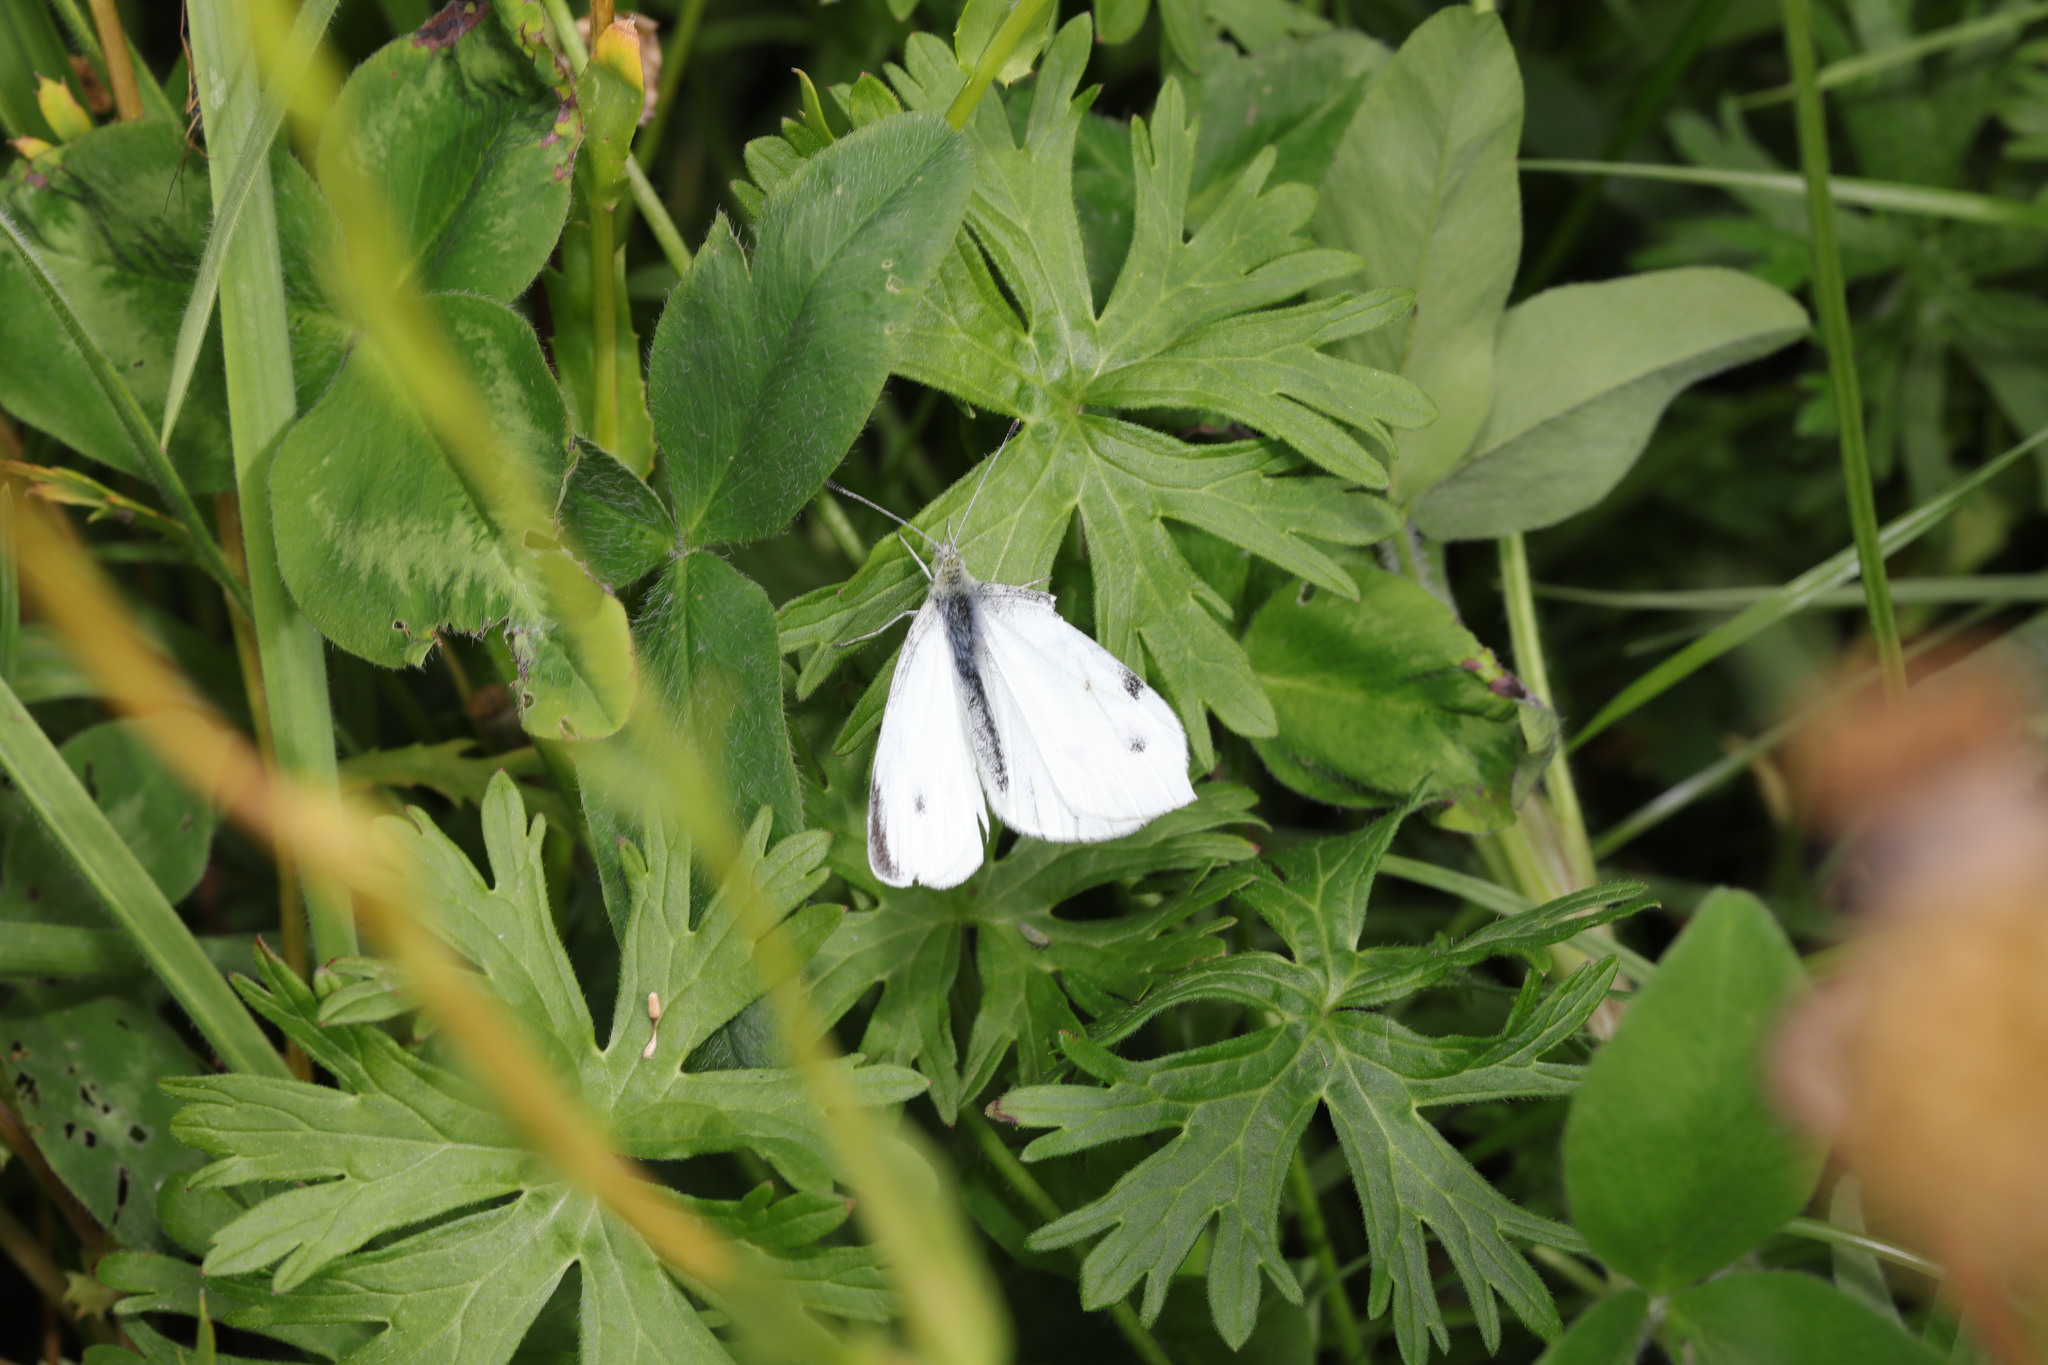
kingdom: Animalia
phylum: Arthropoda
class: Insecta
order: Lepidoptera
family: Pieridae
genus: Pieris
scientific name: Pieris rapae
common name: Small white
